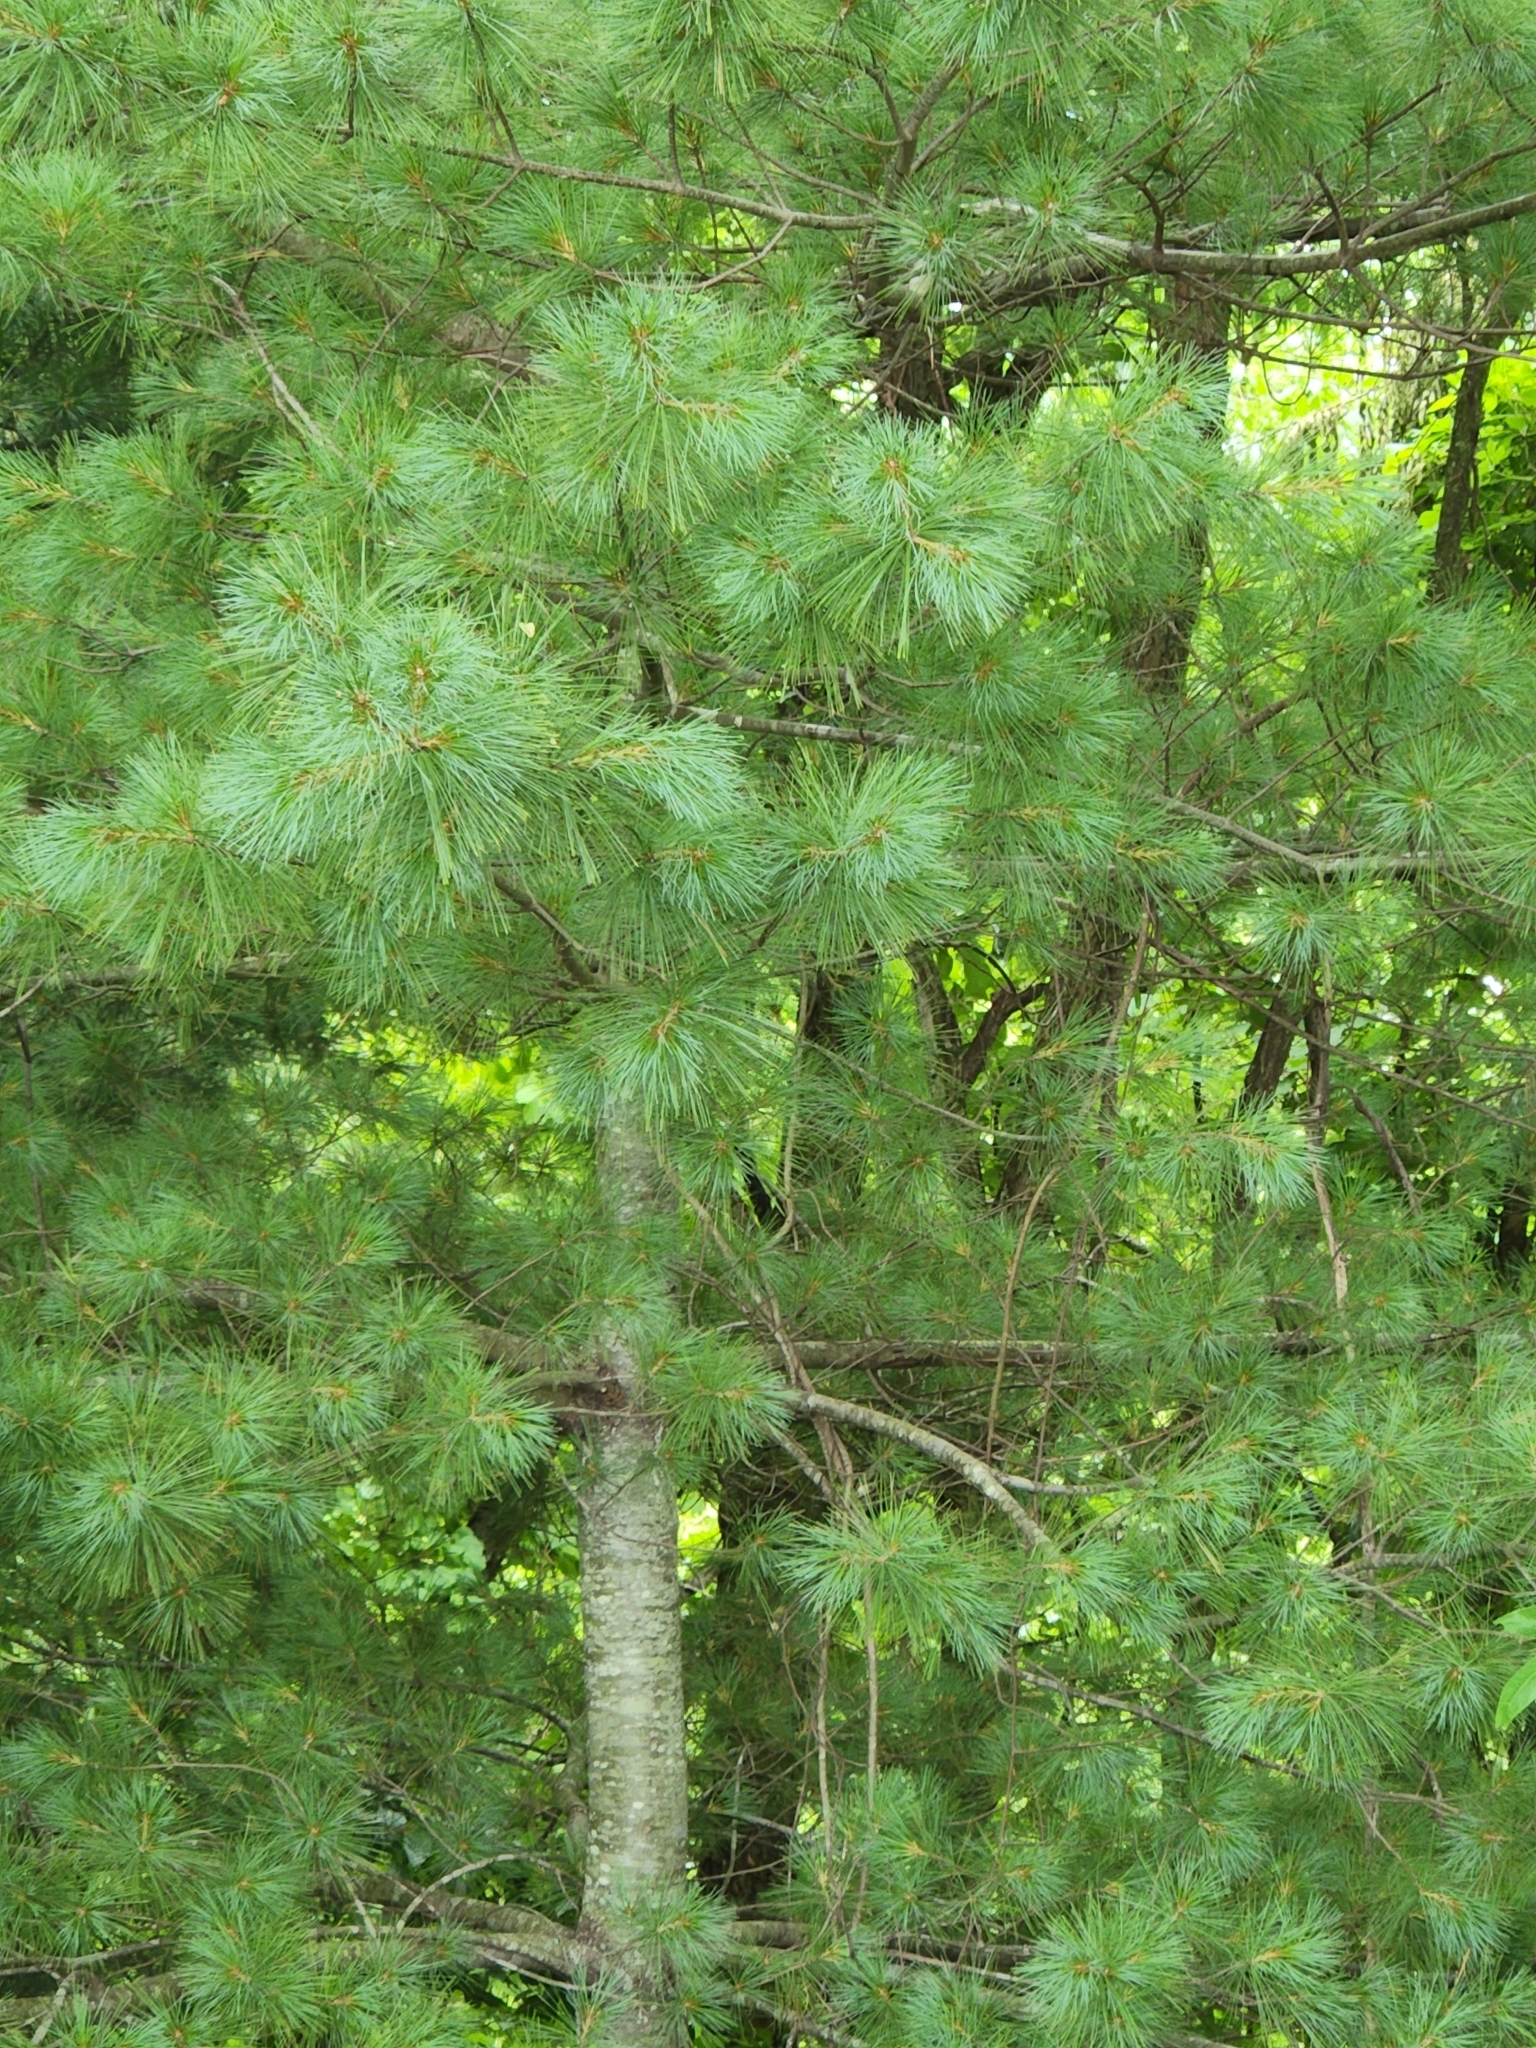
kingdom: Plantae
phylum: Tracheophyta
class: Pinopsida
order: Pinales
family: Pinaceae
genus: Pinus
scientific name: Pinus strobus
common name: Weymouth pine
